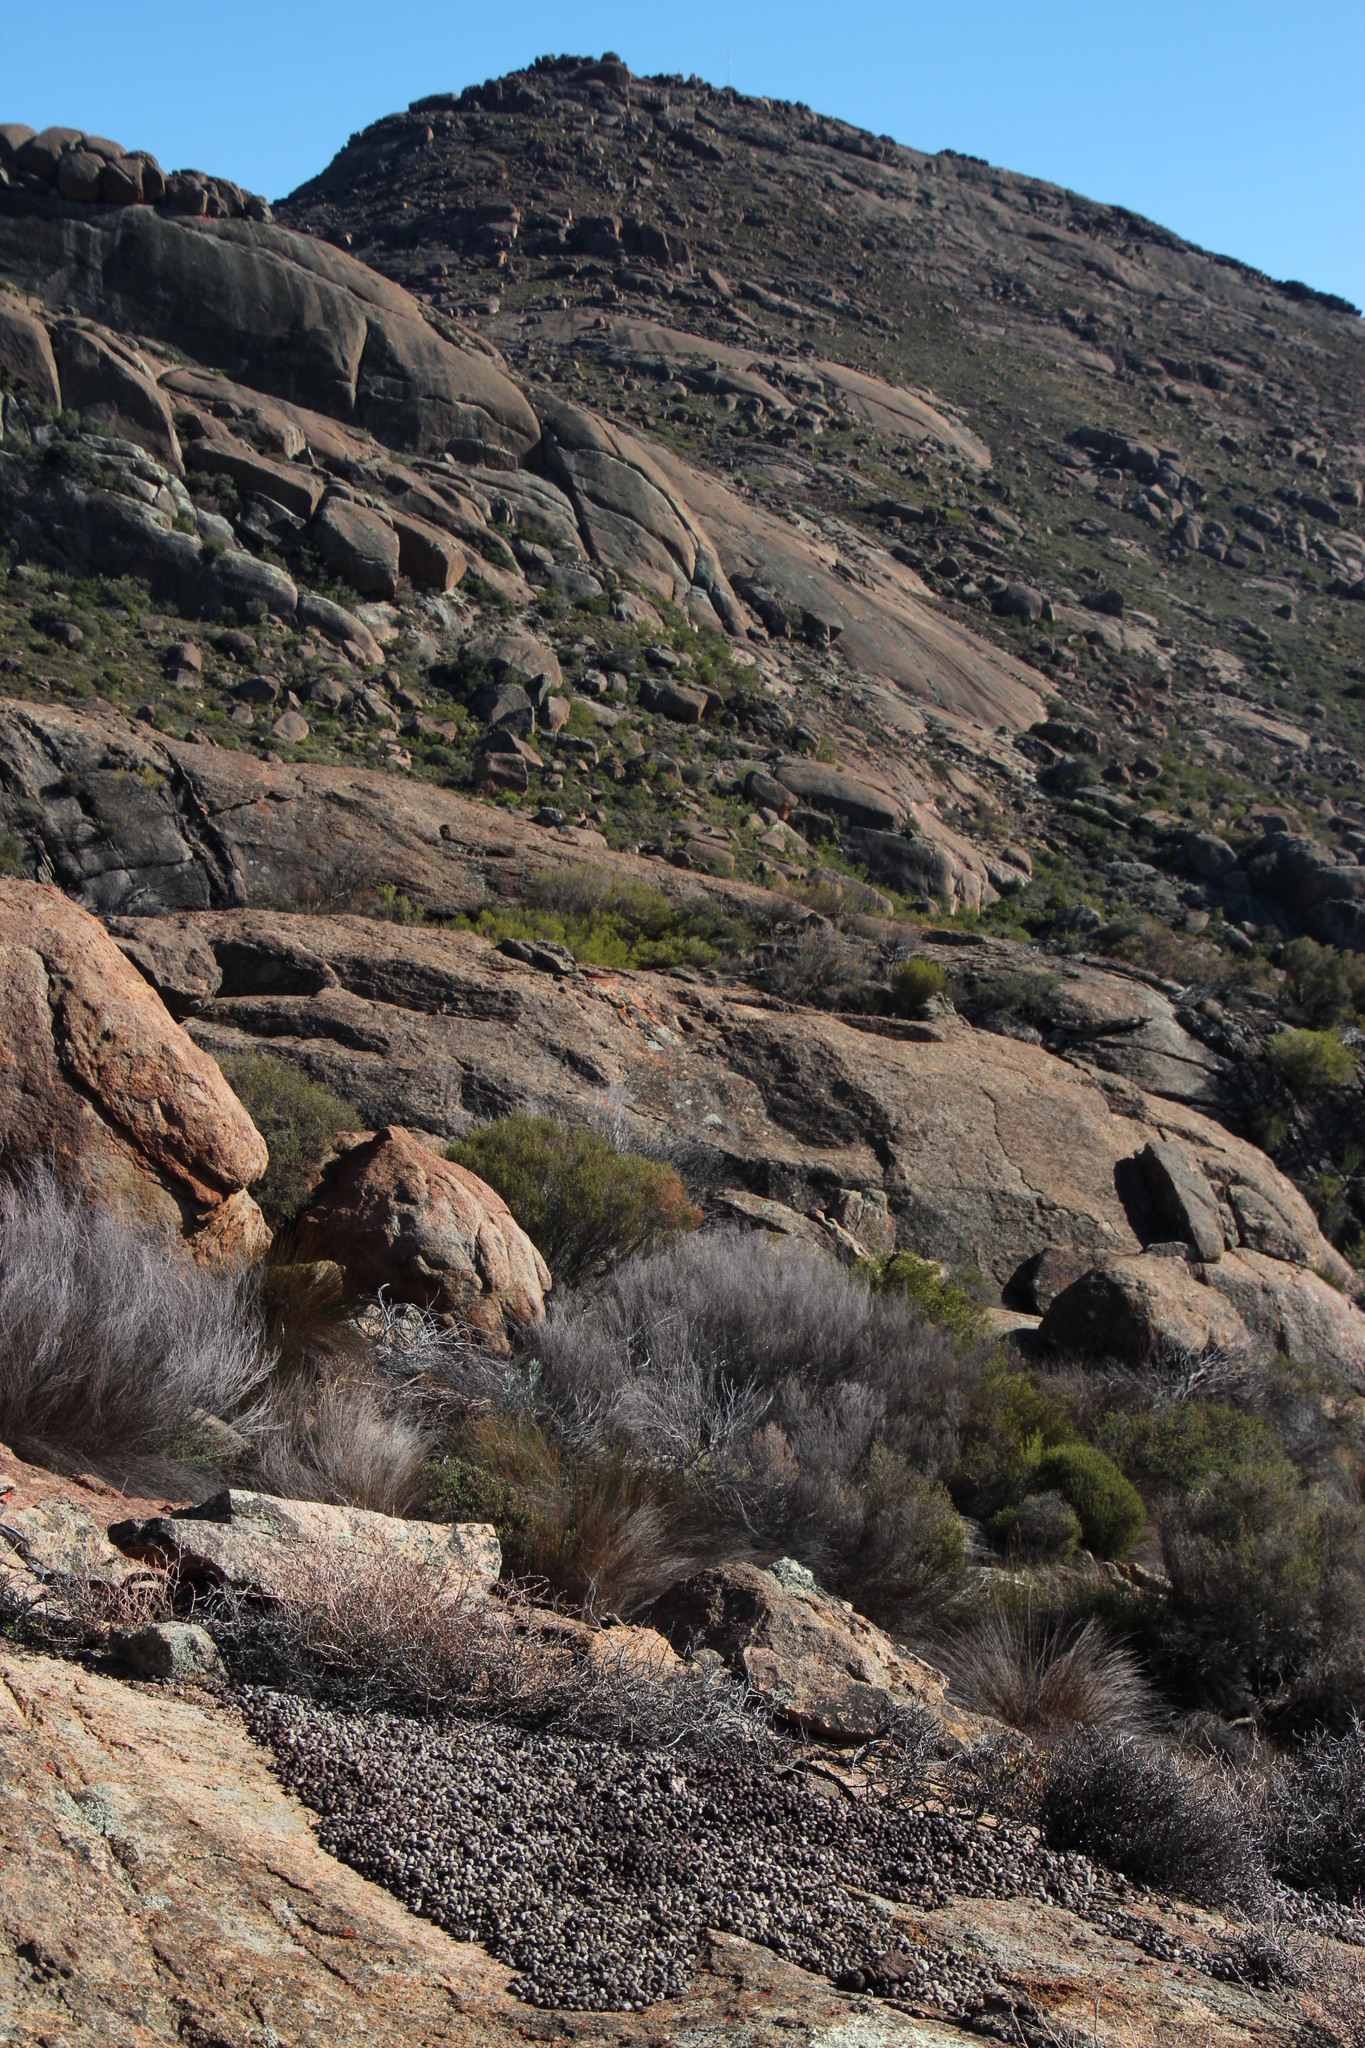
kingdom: Animalia
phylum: Chordata
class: Mammalia
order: Artiodactyla
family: Bovidae
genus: Oreotragus
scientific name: Oreotragus oreotragus
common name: Klipspringer
